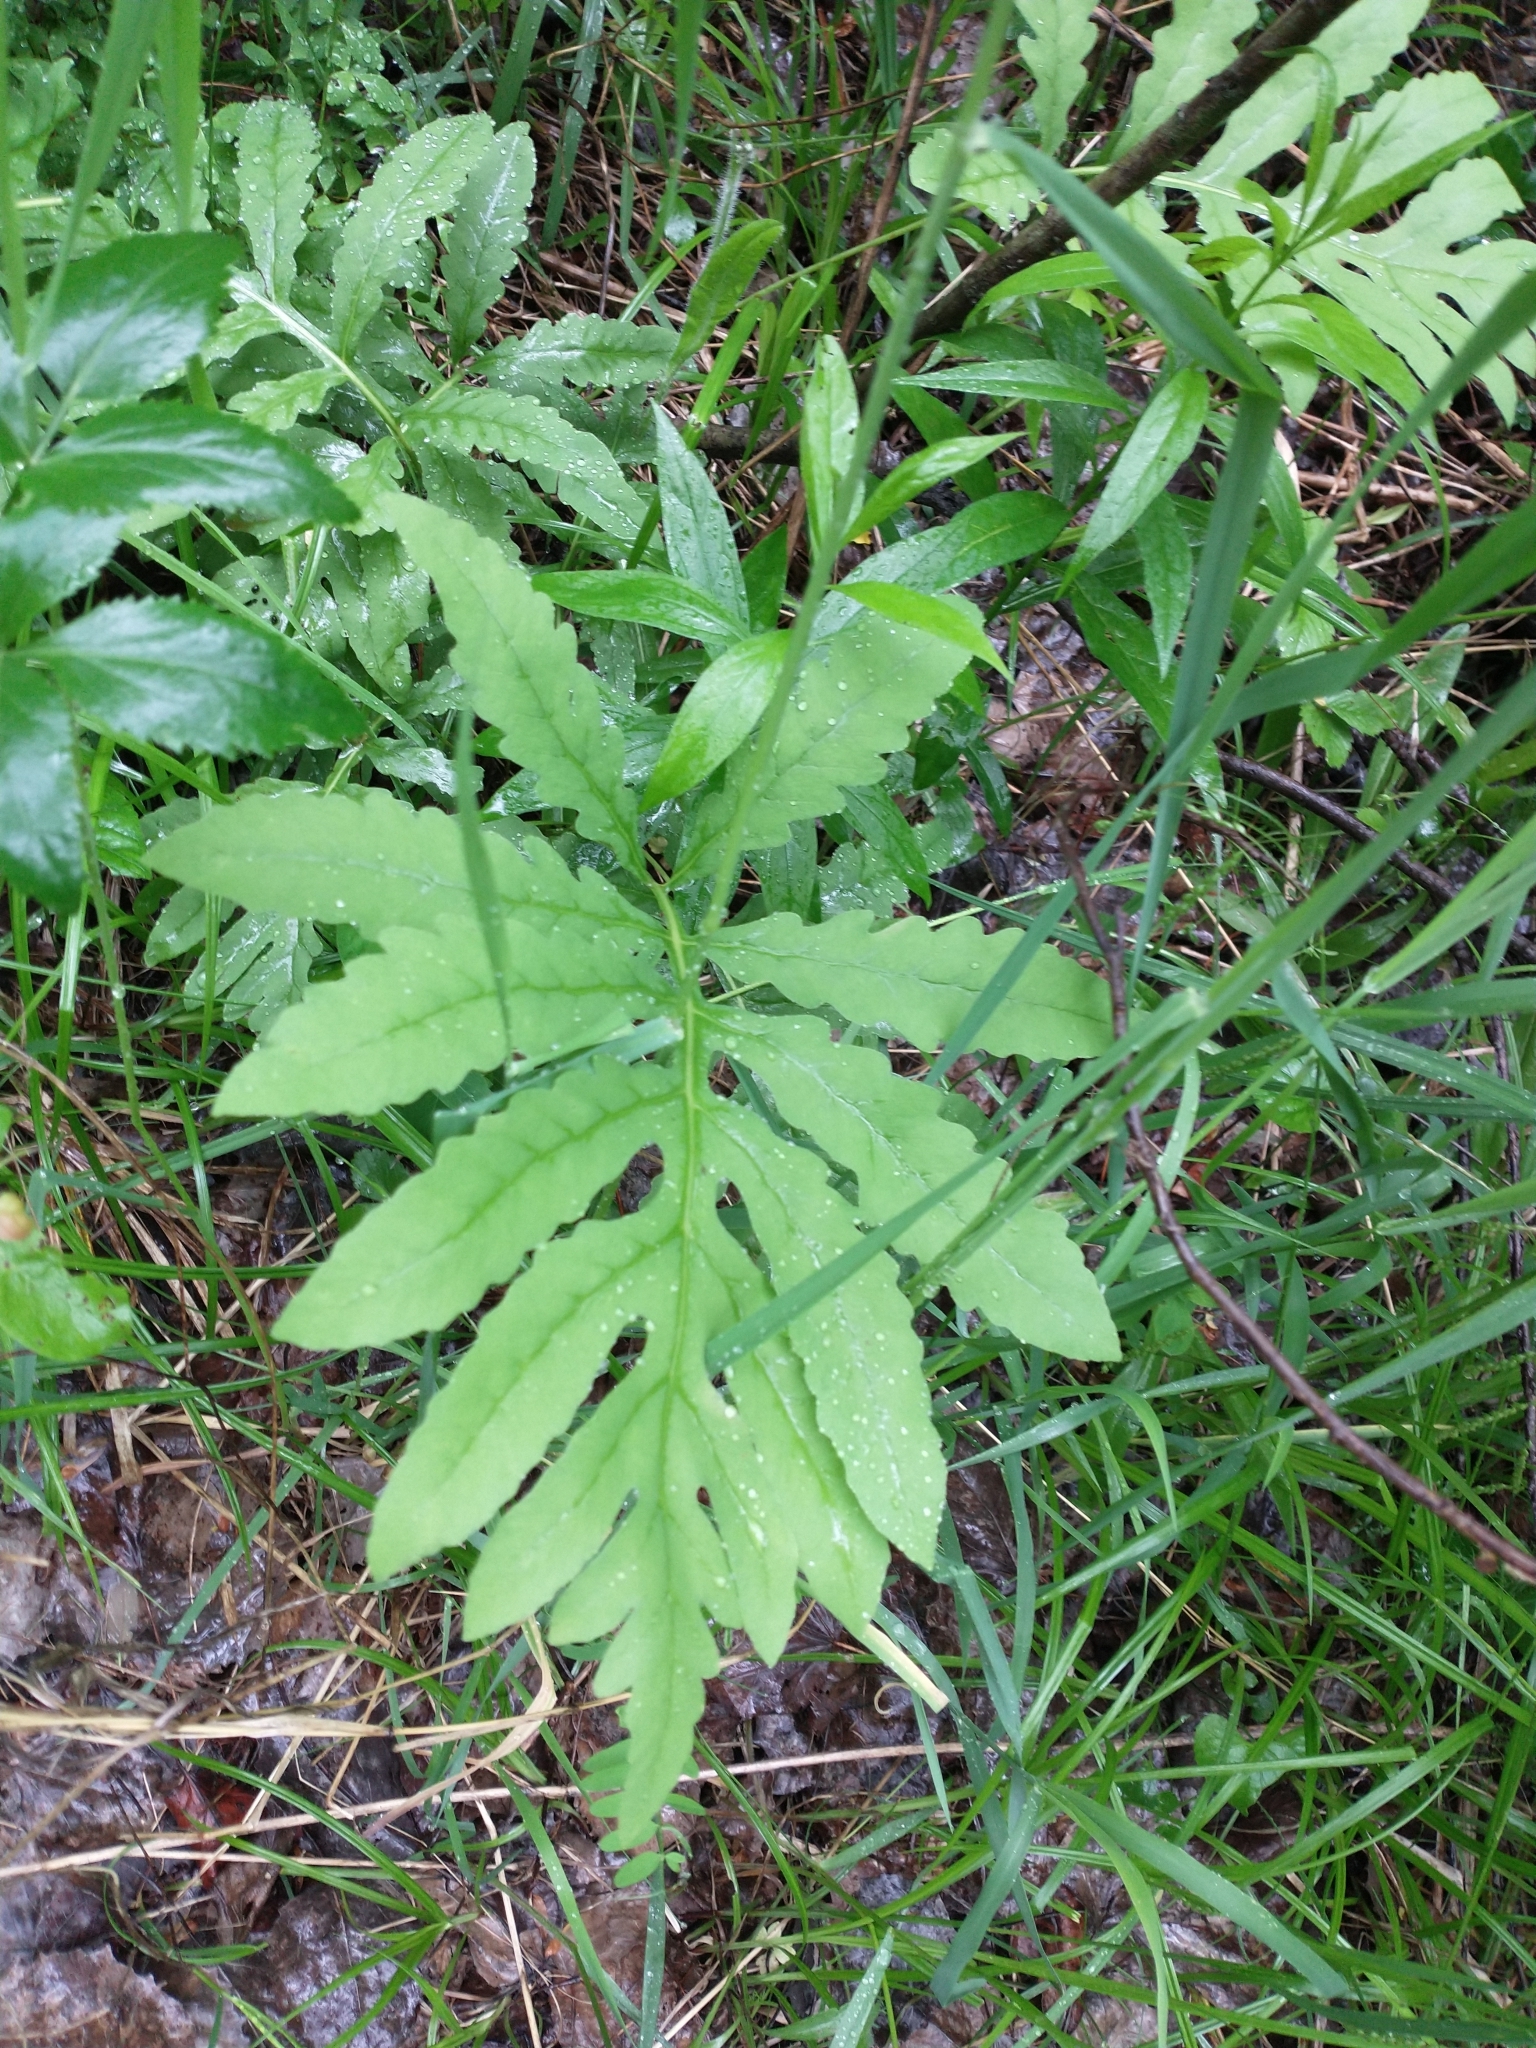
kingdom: Plantae
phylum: Tracheophyta
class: Polypodiopsida
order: Polypodiales
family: Onocleaceae
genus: Onoclea
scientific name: Onoclea sensibilis
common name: Sensitive fern
